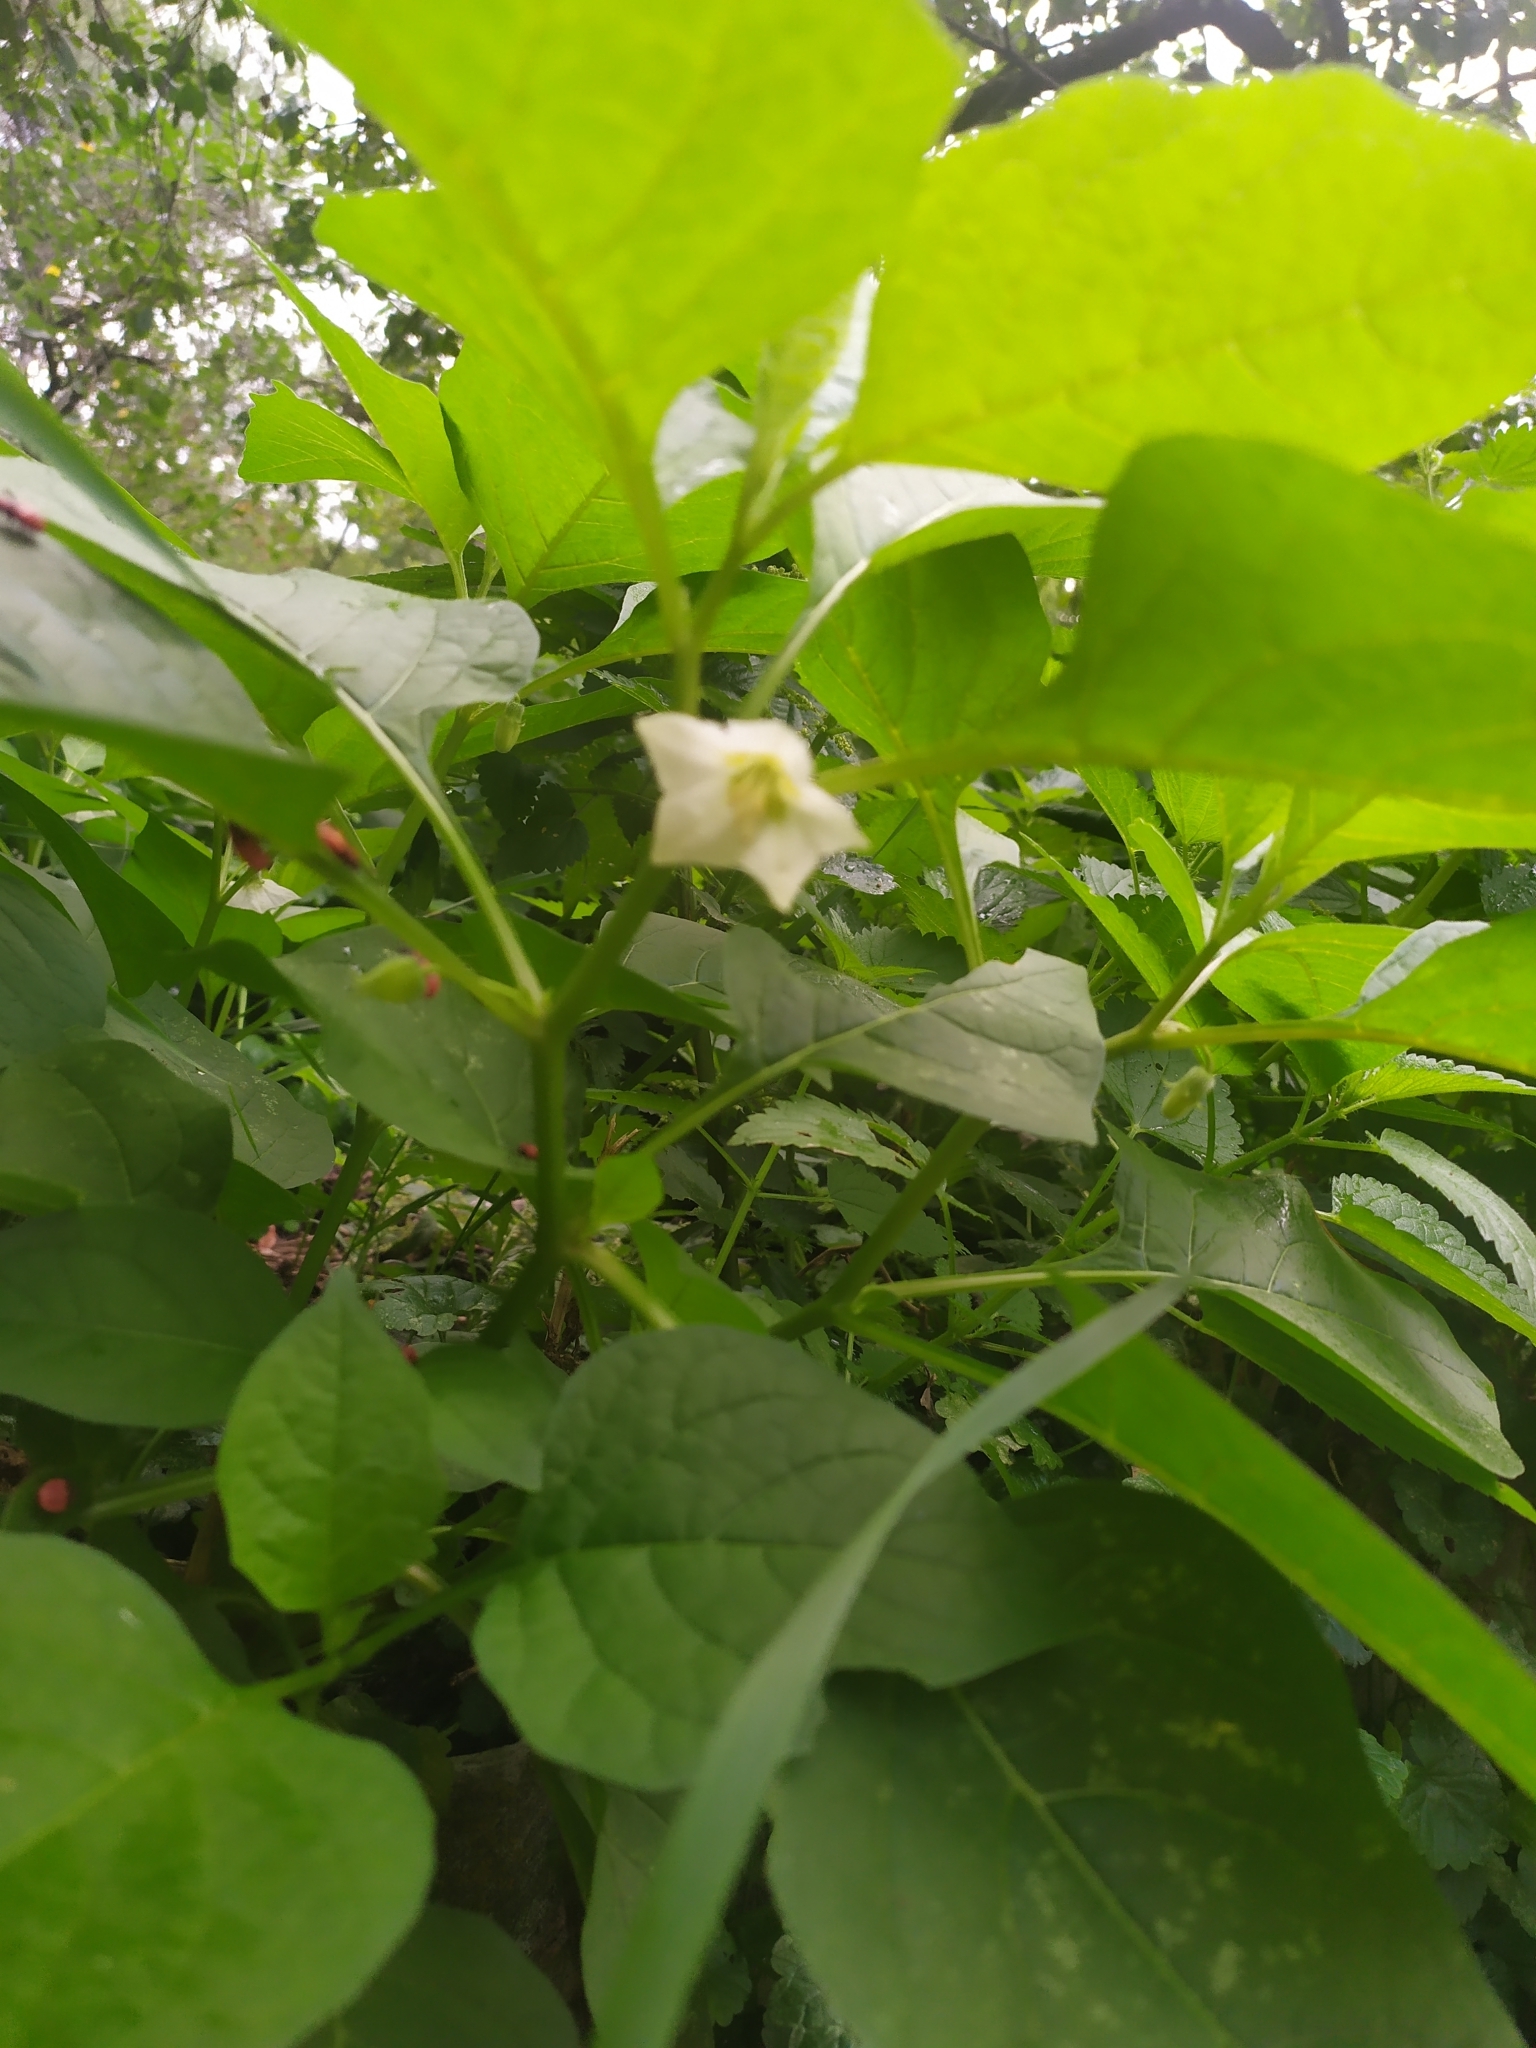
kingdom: Plantae
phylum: Tracheophyta
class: Magnoliopsida
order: Solanales
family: Solanaceae
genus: Alkekengi
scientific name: Alkekengi officinarum
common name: Japanese-lantern
